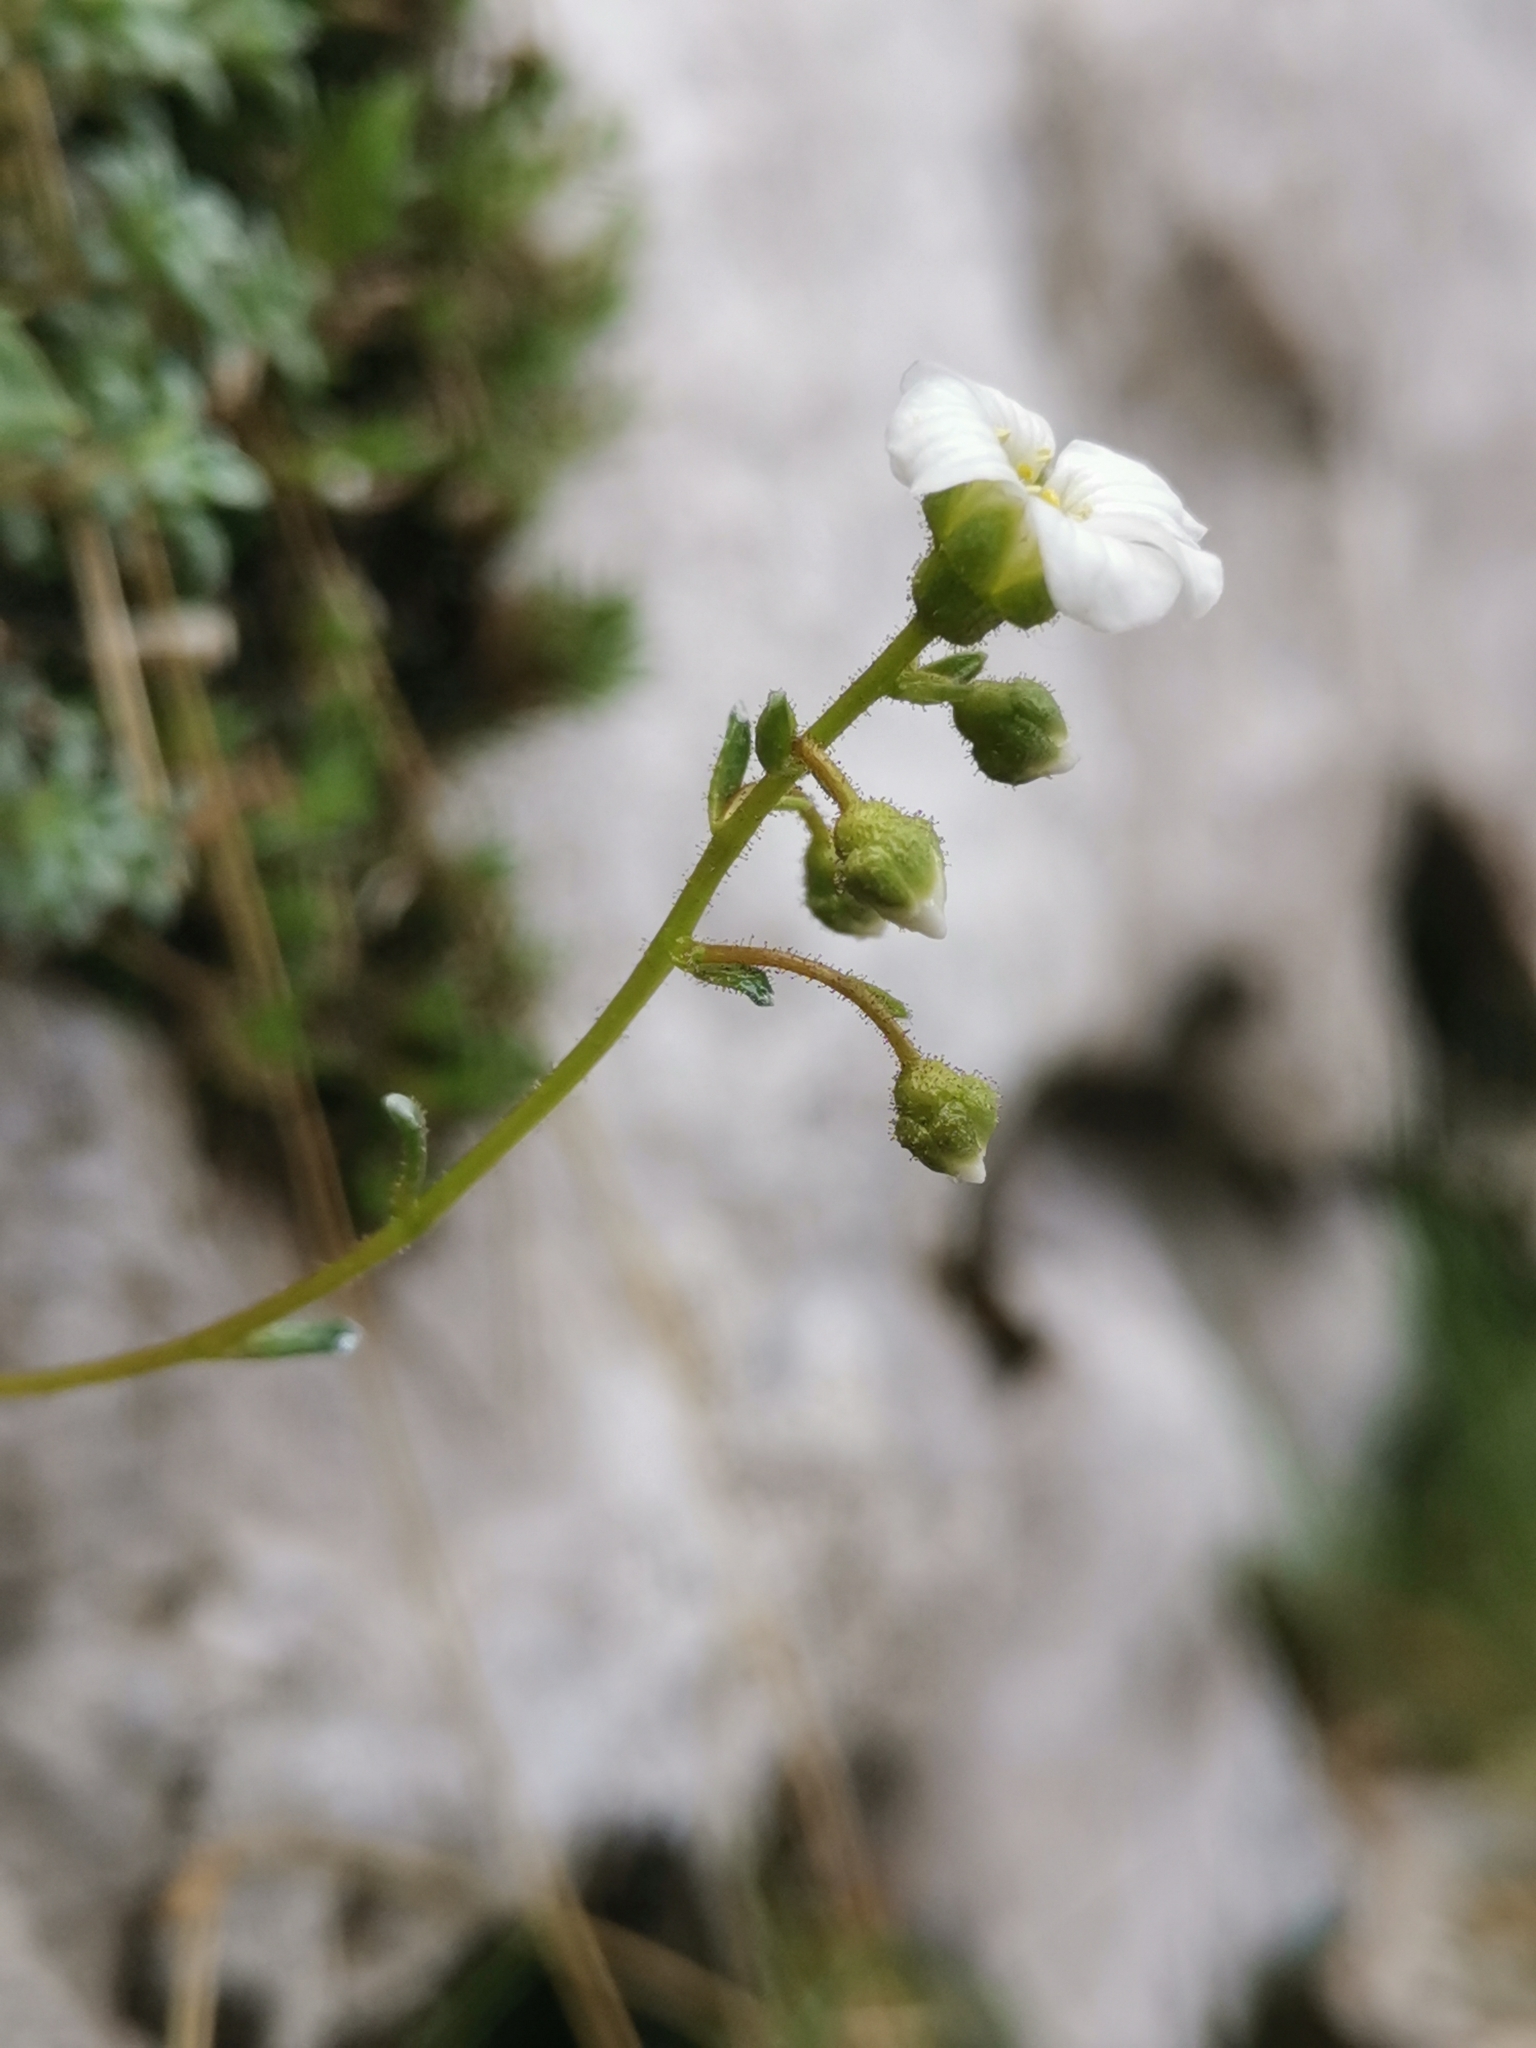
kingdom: Plantae
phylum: Tracheophyta
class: Magnoliopsida
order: Saxifragales
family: Saxifragaceae
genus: Saxifraga
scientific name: Saxifraga caesia
